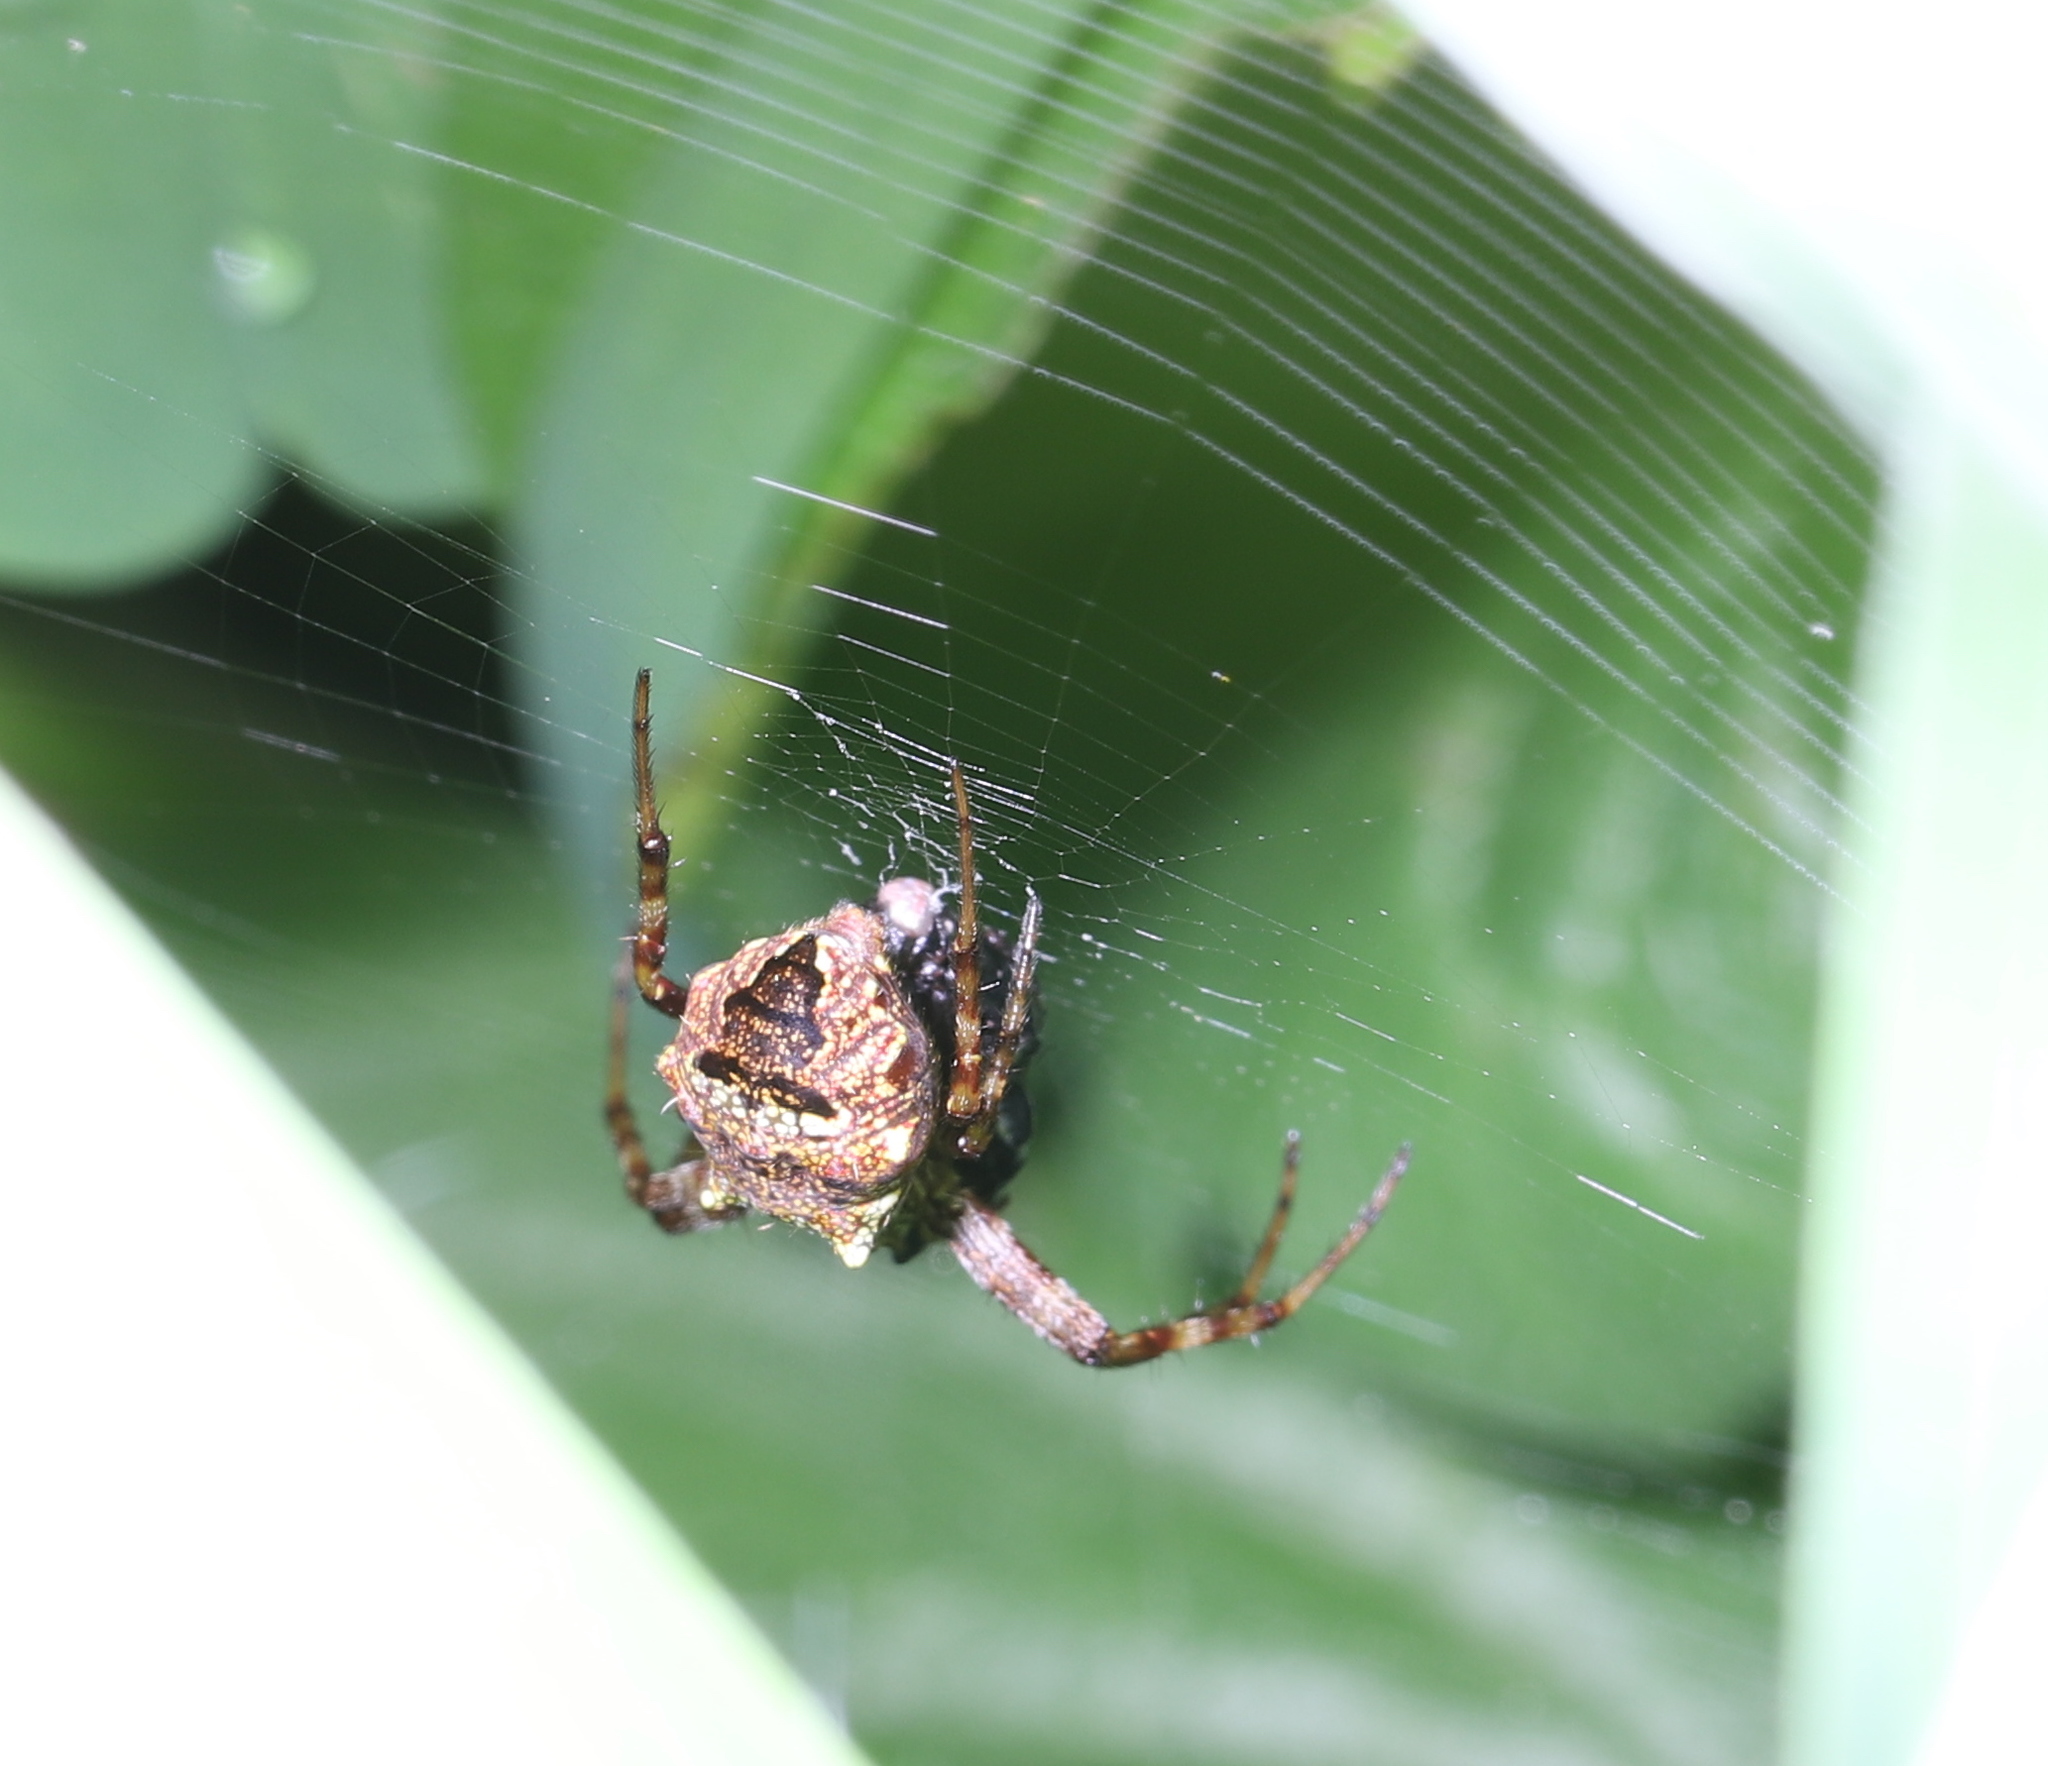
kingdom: Animalia
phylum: Arthropoda
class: Arachnida
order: Araneae
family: Araneidae
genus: Gea
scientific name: Gea heptagon
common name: Orb weavers
